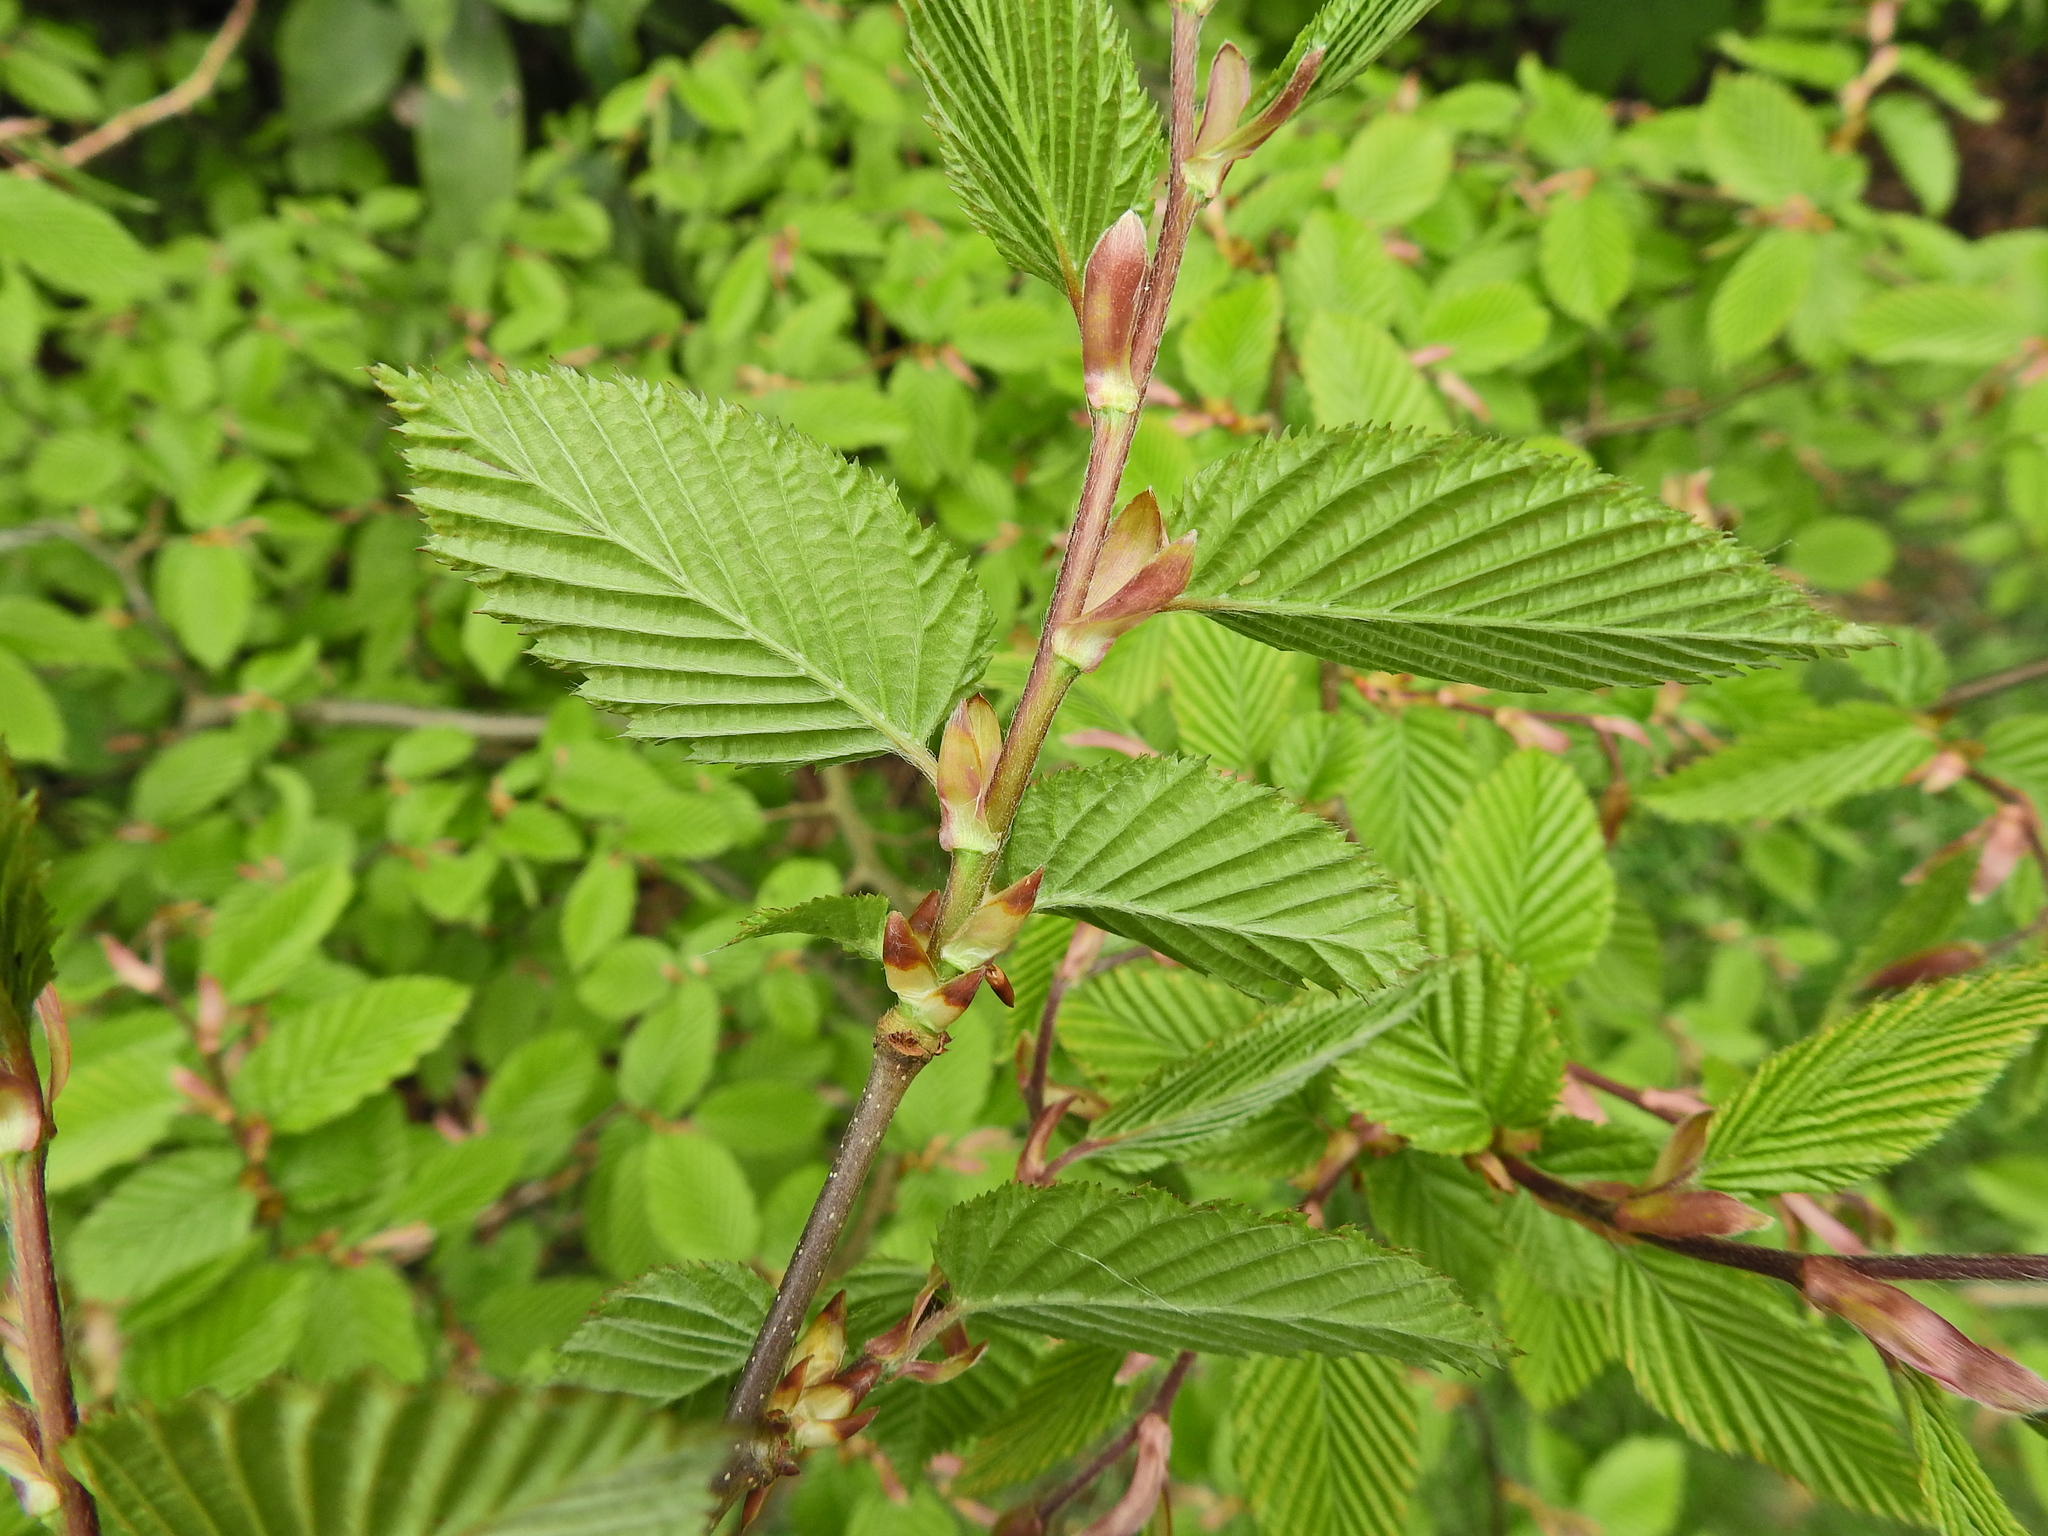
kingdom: Plantae
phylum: Tracheophyta
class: Magnoliopsida
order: Fagales
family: Betulaceae
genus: Carpinus
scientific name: Carpinus betulus
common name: Hornbeam
